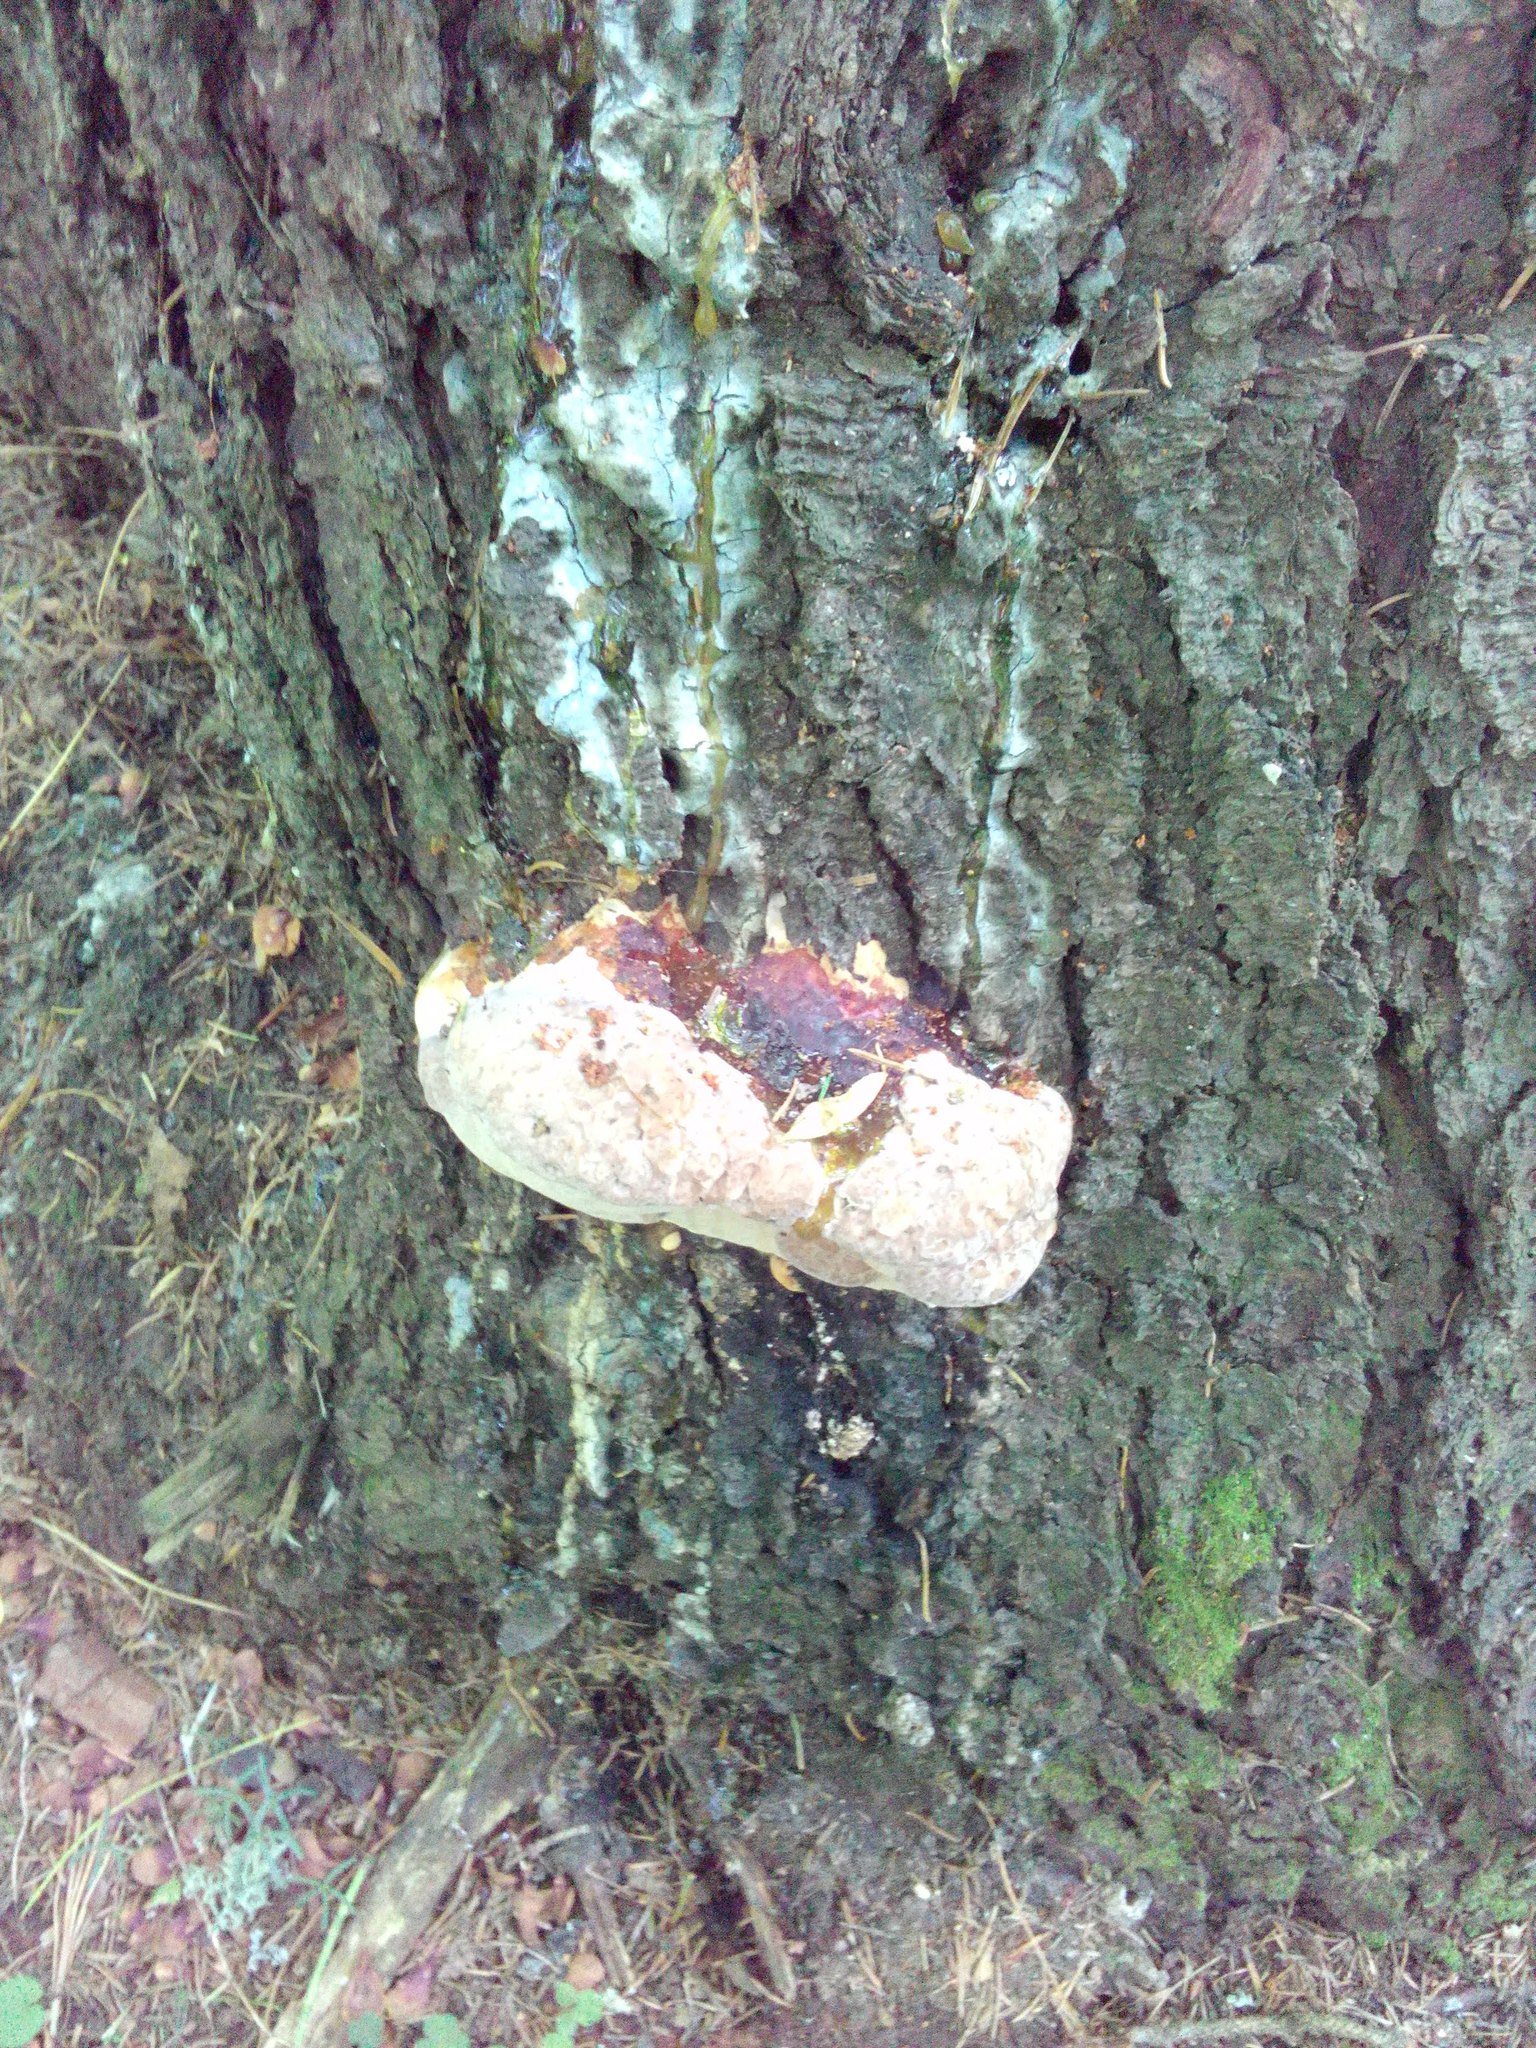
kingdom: Fungi
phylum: Basidiomycota
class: Agaricomycetes
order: Polyporales
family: Fomitopsidaceae
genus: Fomitopsis
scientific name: Fomitopsis pinicola
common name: Red-belted bracket
